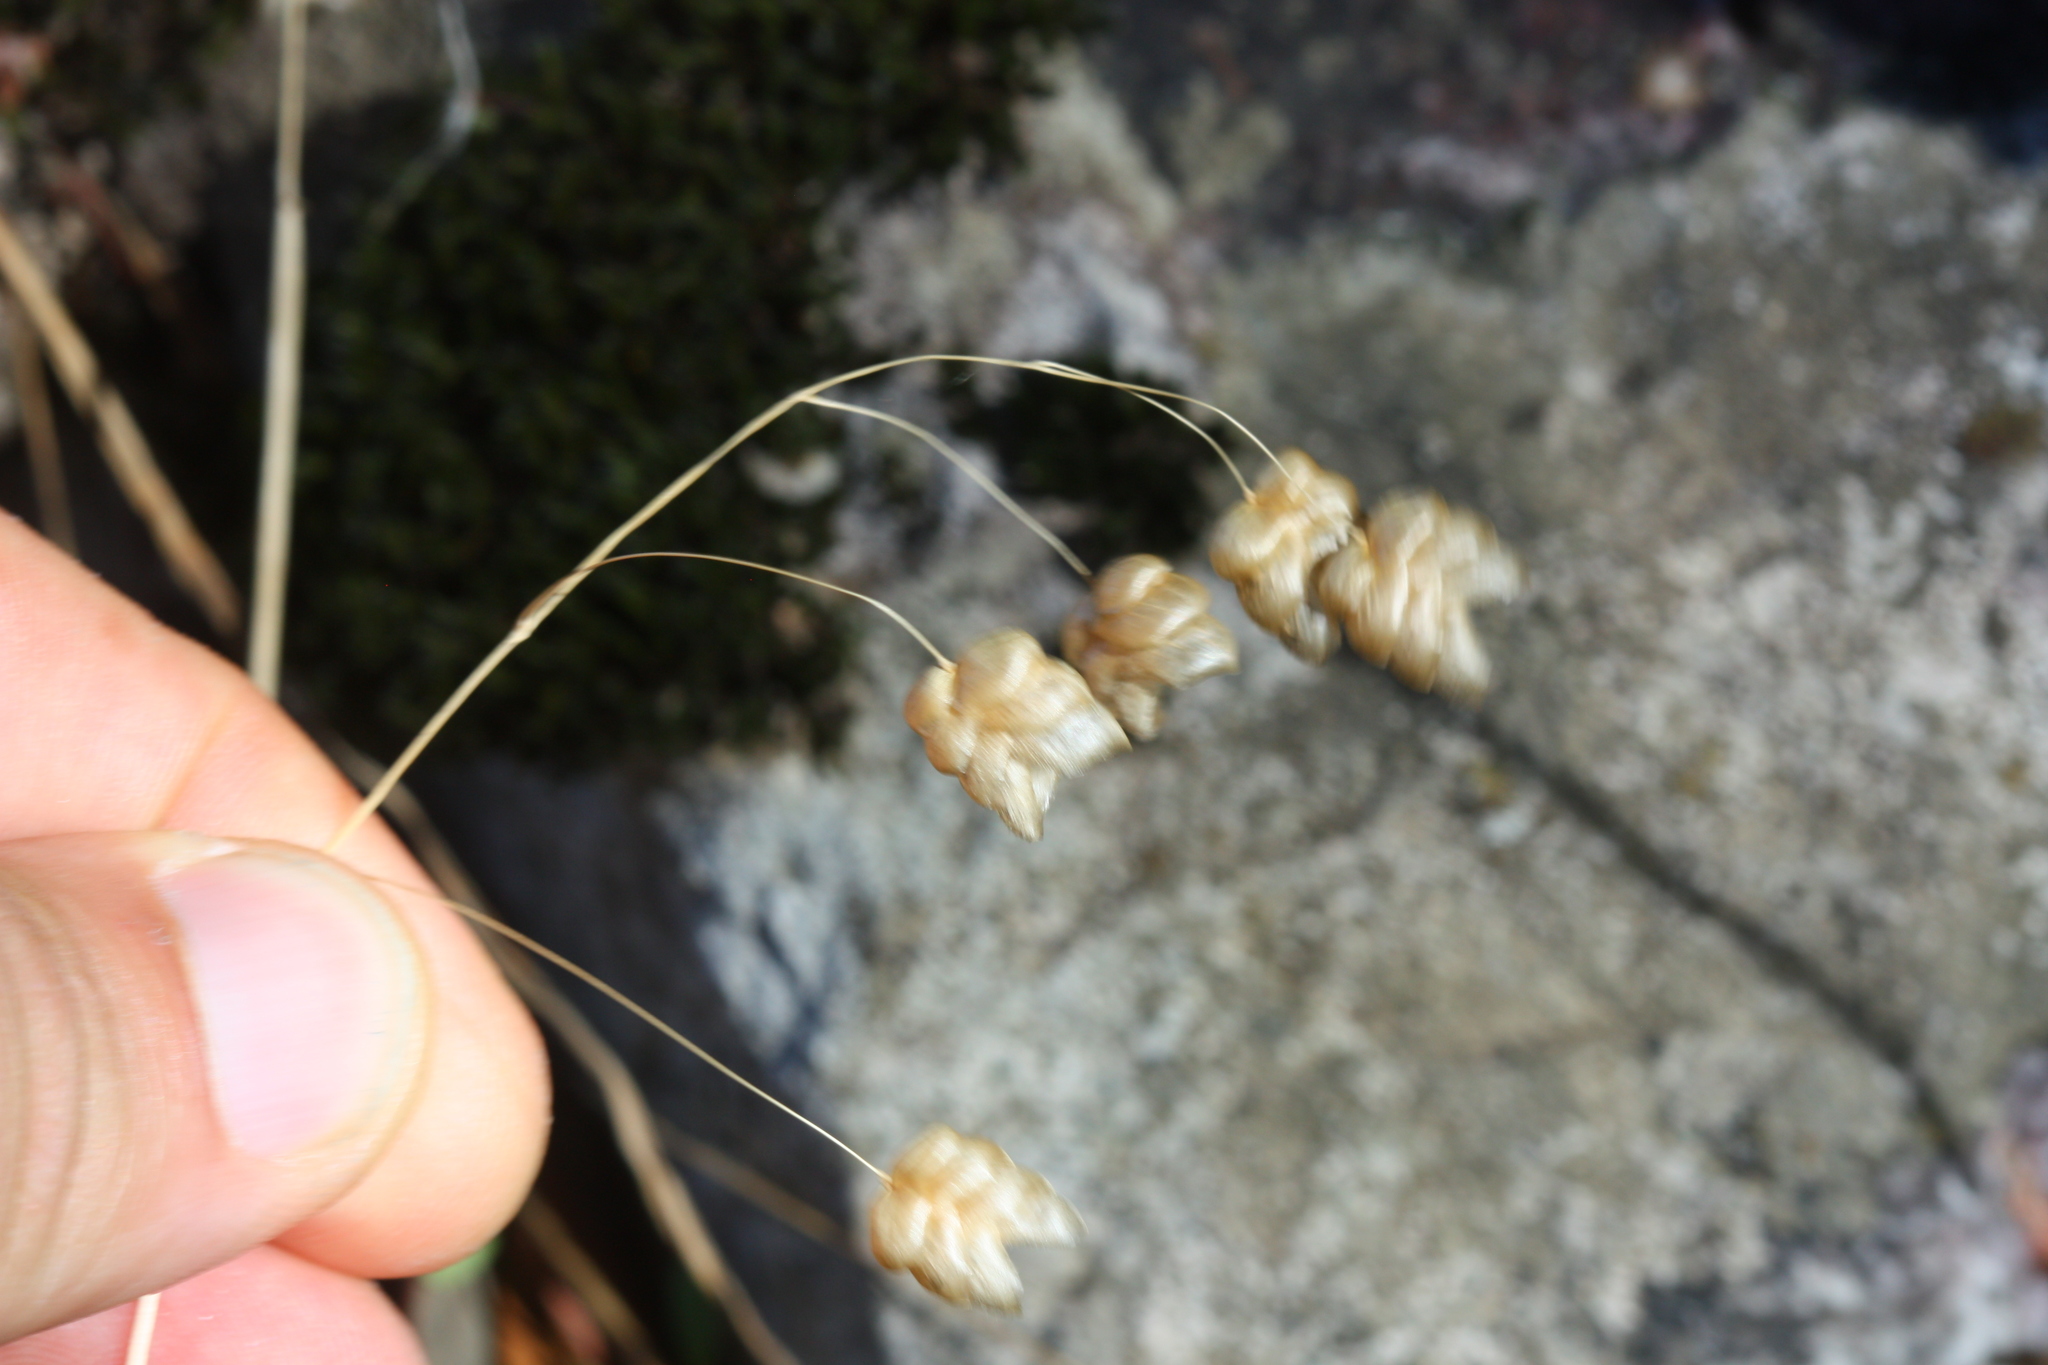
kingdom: Plantae
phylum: Tracheophyta
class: Liliopsida
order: Poales
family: Poaceae
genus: Briza
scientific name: Briza maxima
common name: Big quakinggrass
